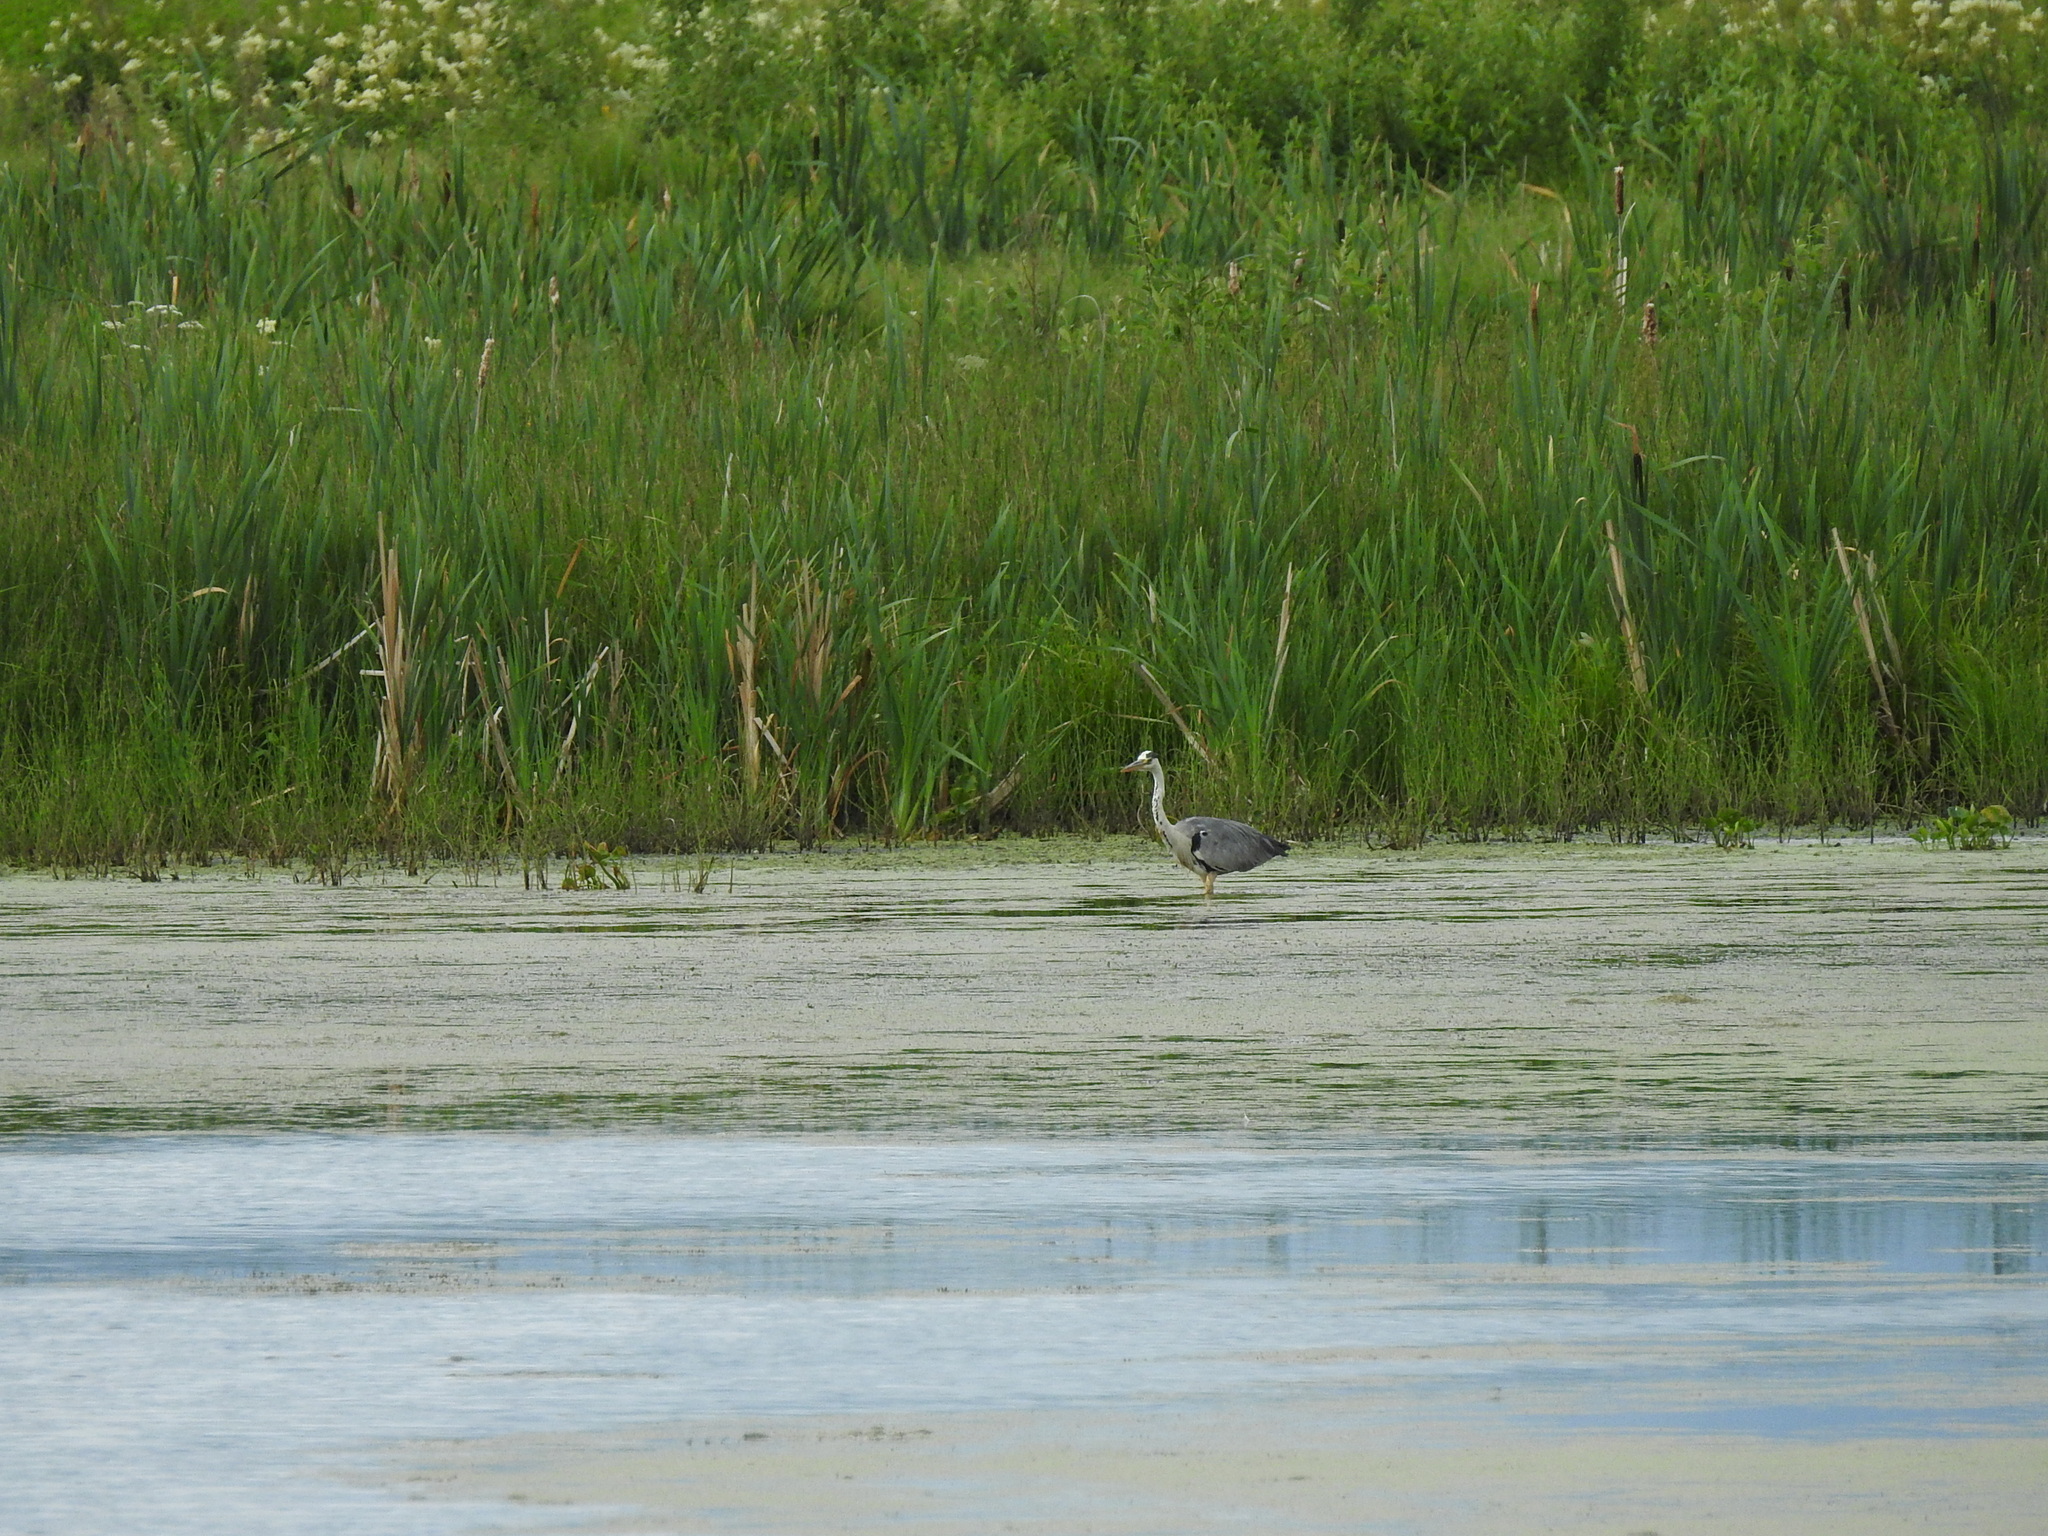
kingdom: Animalia
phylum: Chordata
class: Aves
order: Pelecaniformes
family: Ardeidae
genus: Ardea
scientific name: Ardea cinerea
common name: Grey heron
